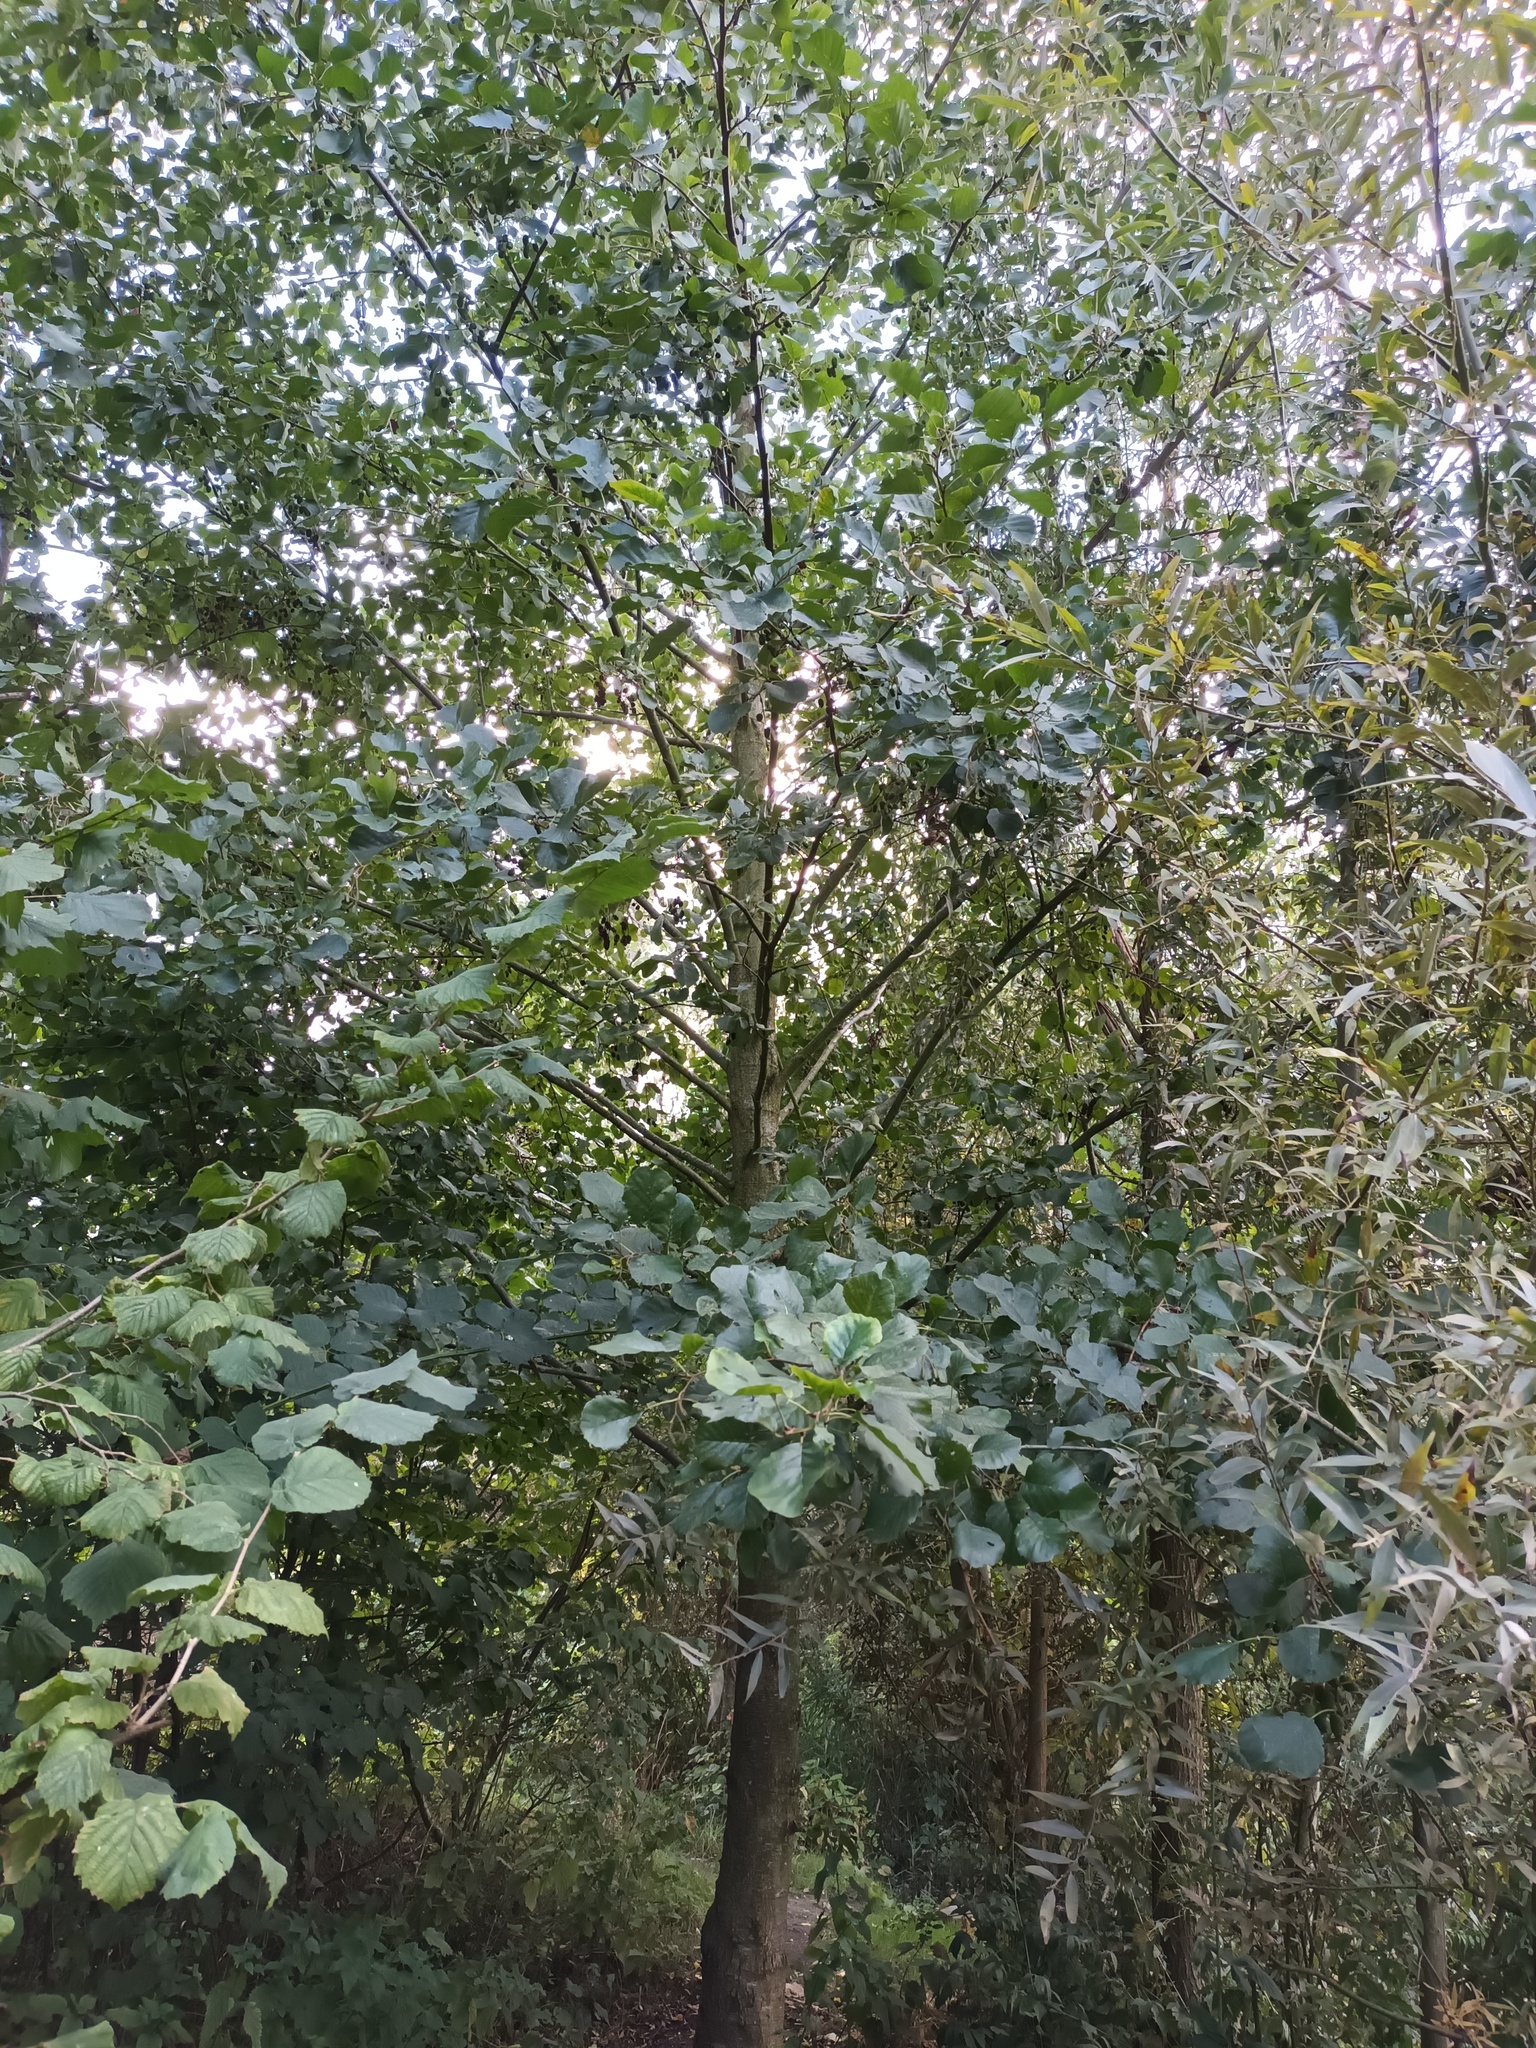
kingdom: Plantae
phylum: Tracheophyta
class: Magnoliopsida
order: Fagales
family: Betulaceae
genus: Alnus
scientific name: Alnus glutinosa
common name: Black alder
